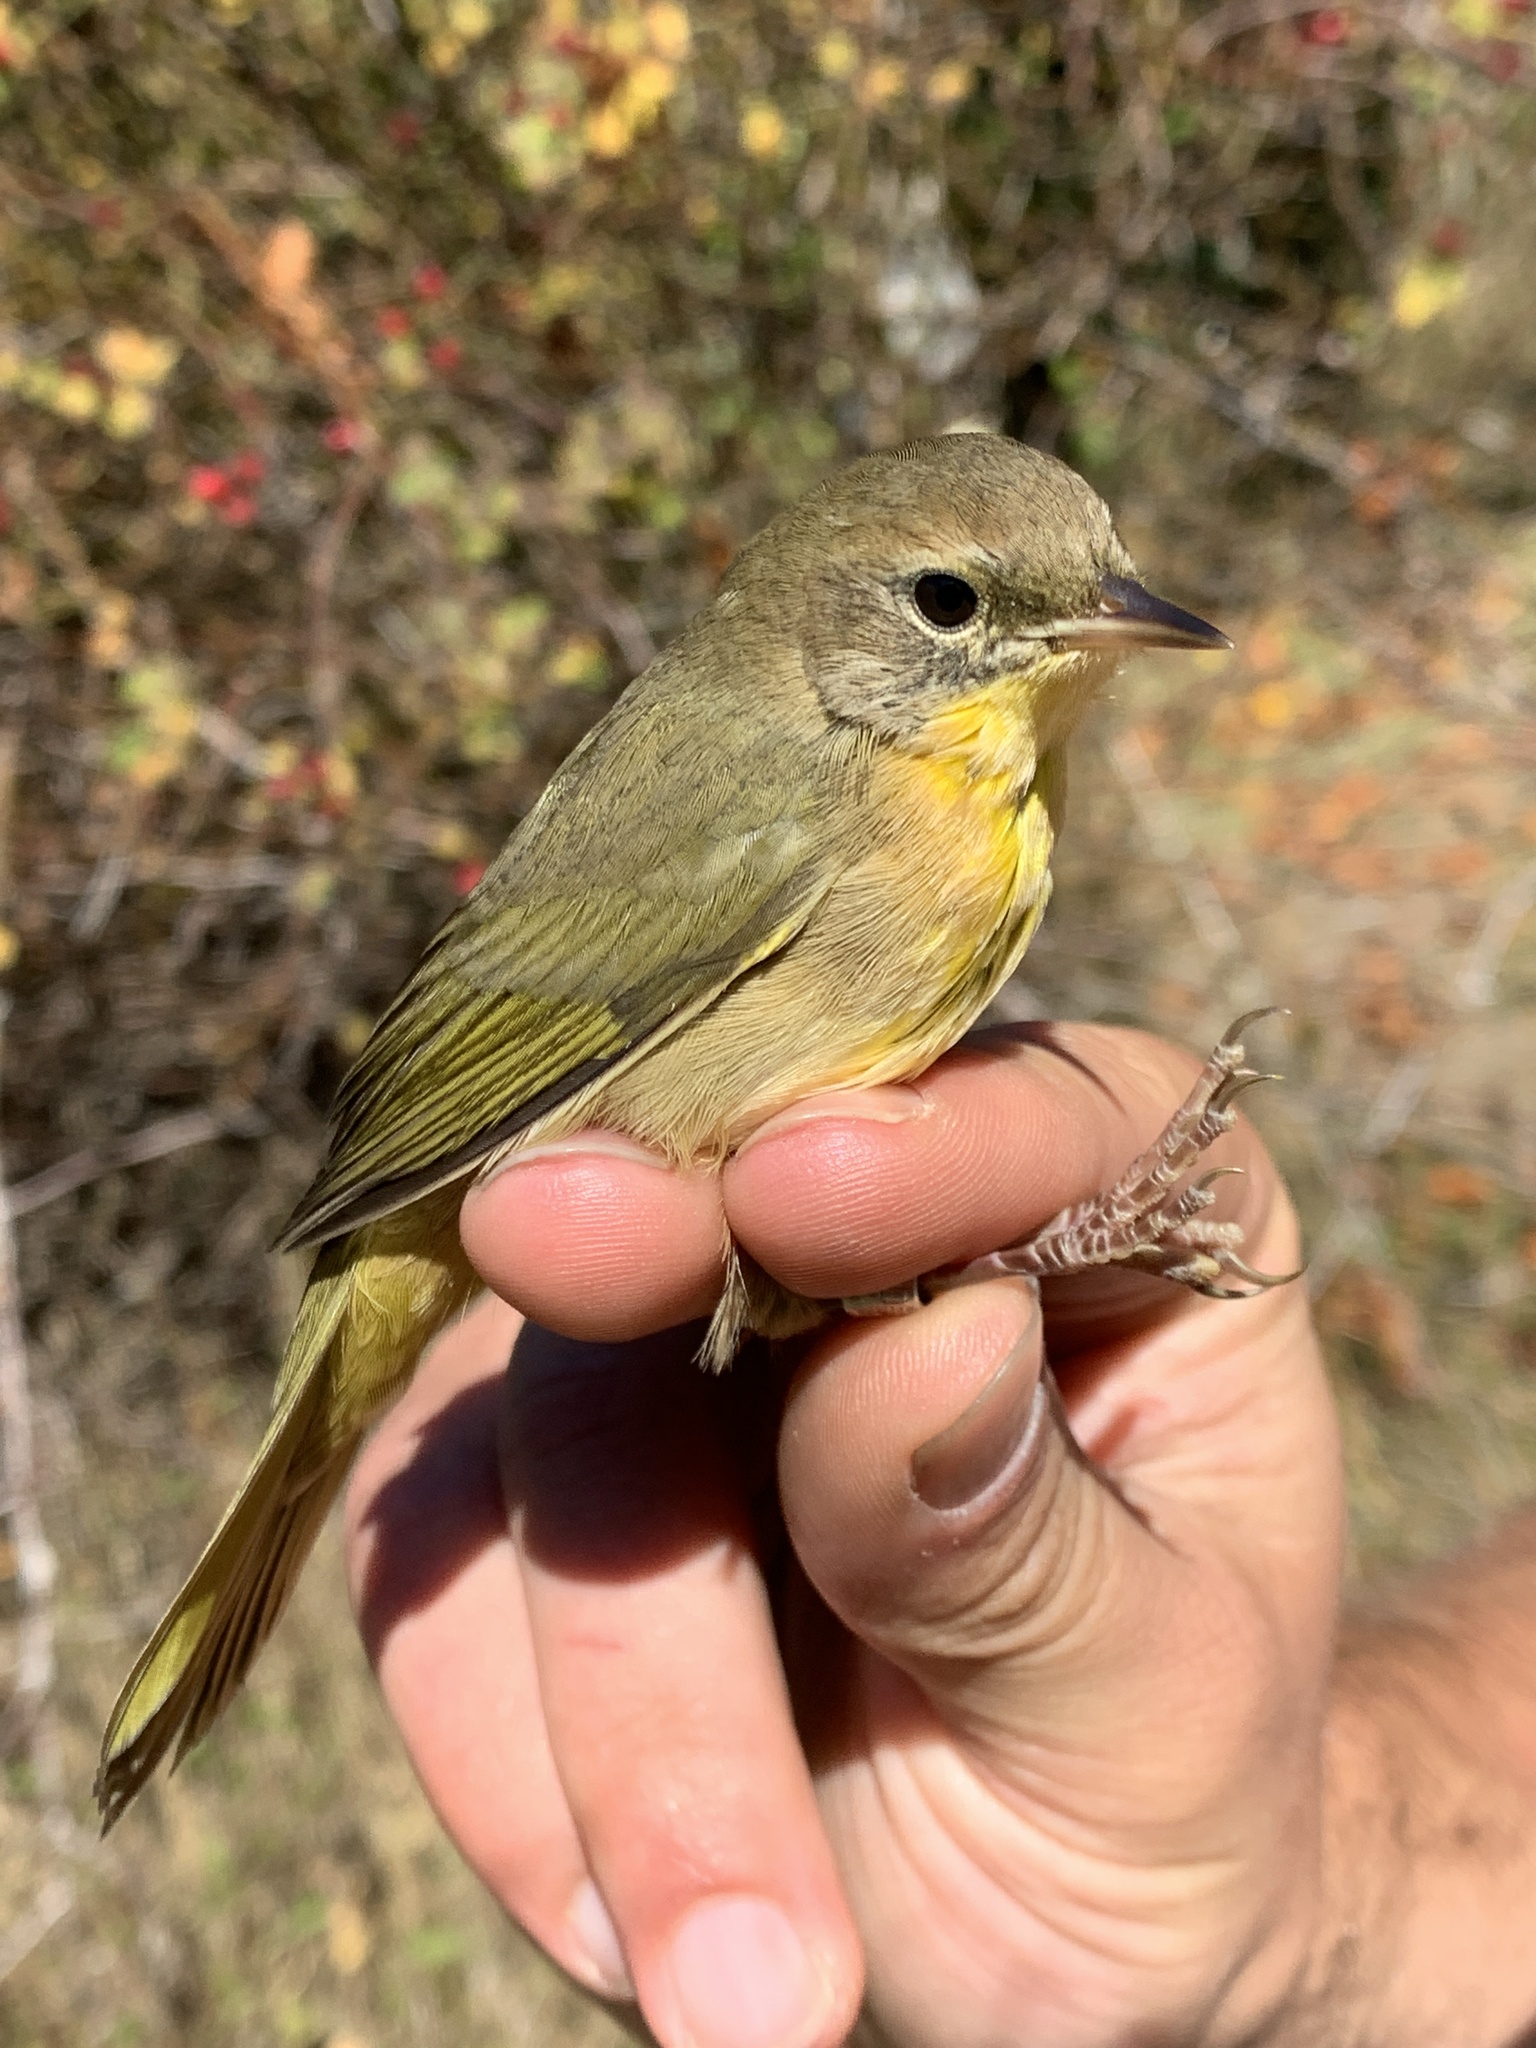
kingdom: Animalia
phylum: Chordata
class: Aves
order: Passeriformes
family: Parulidae
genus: Geothlypis
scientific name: Geothlypis trichas
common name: Common yellowthroat
